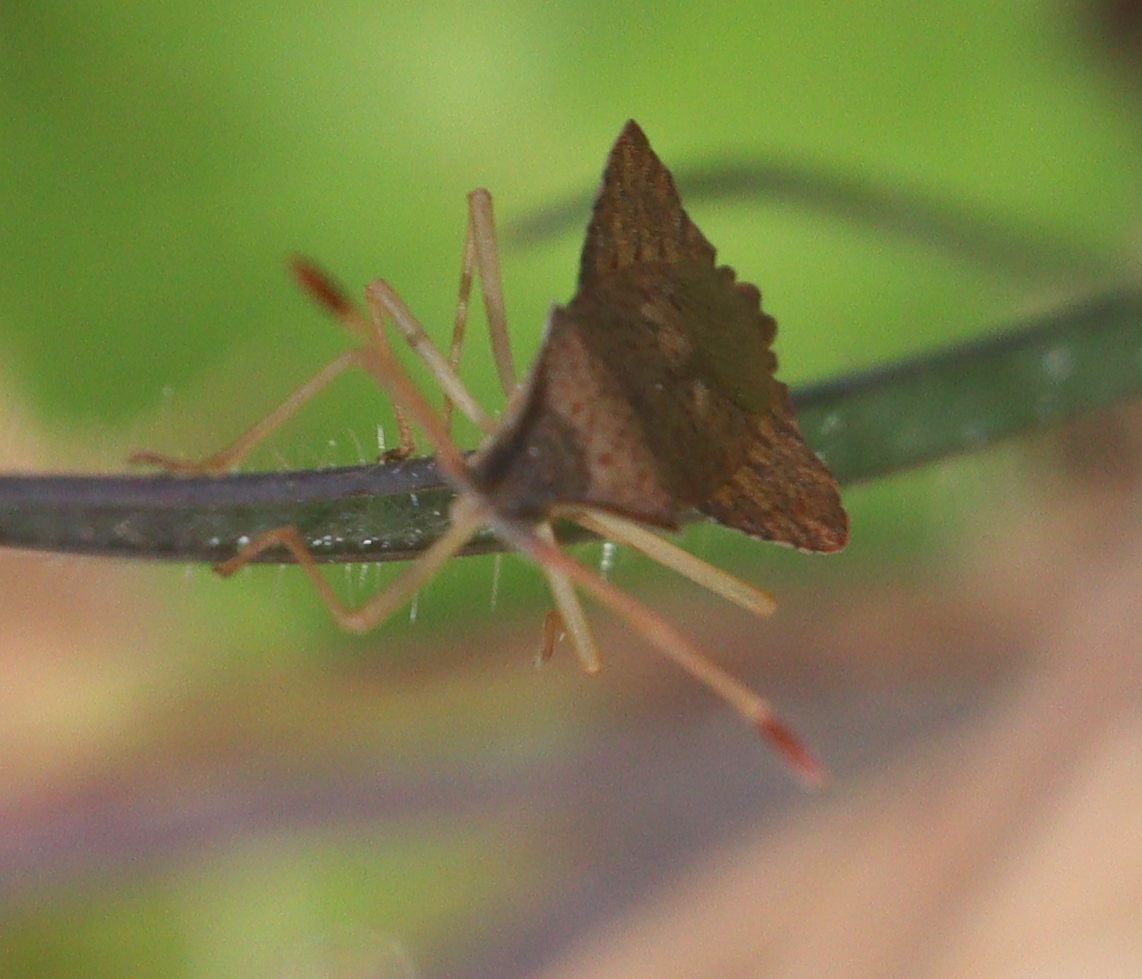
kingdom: Animalia
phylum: Arthropoda
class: Insecta
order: Hemiptera
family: Coreidae
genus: Syromastus
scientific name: Syromastus rhombeus
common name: Rhombic leatherbug
